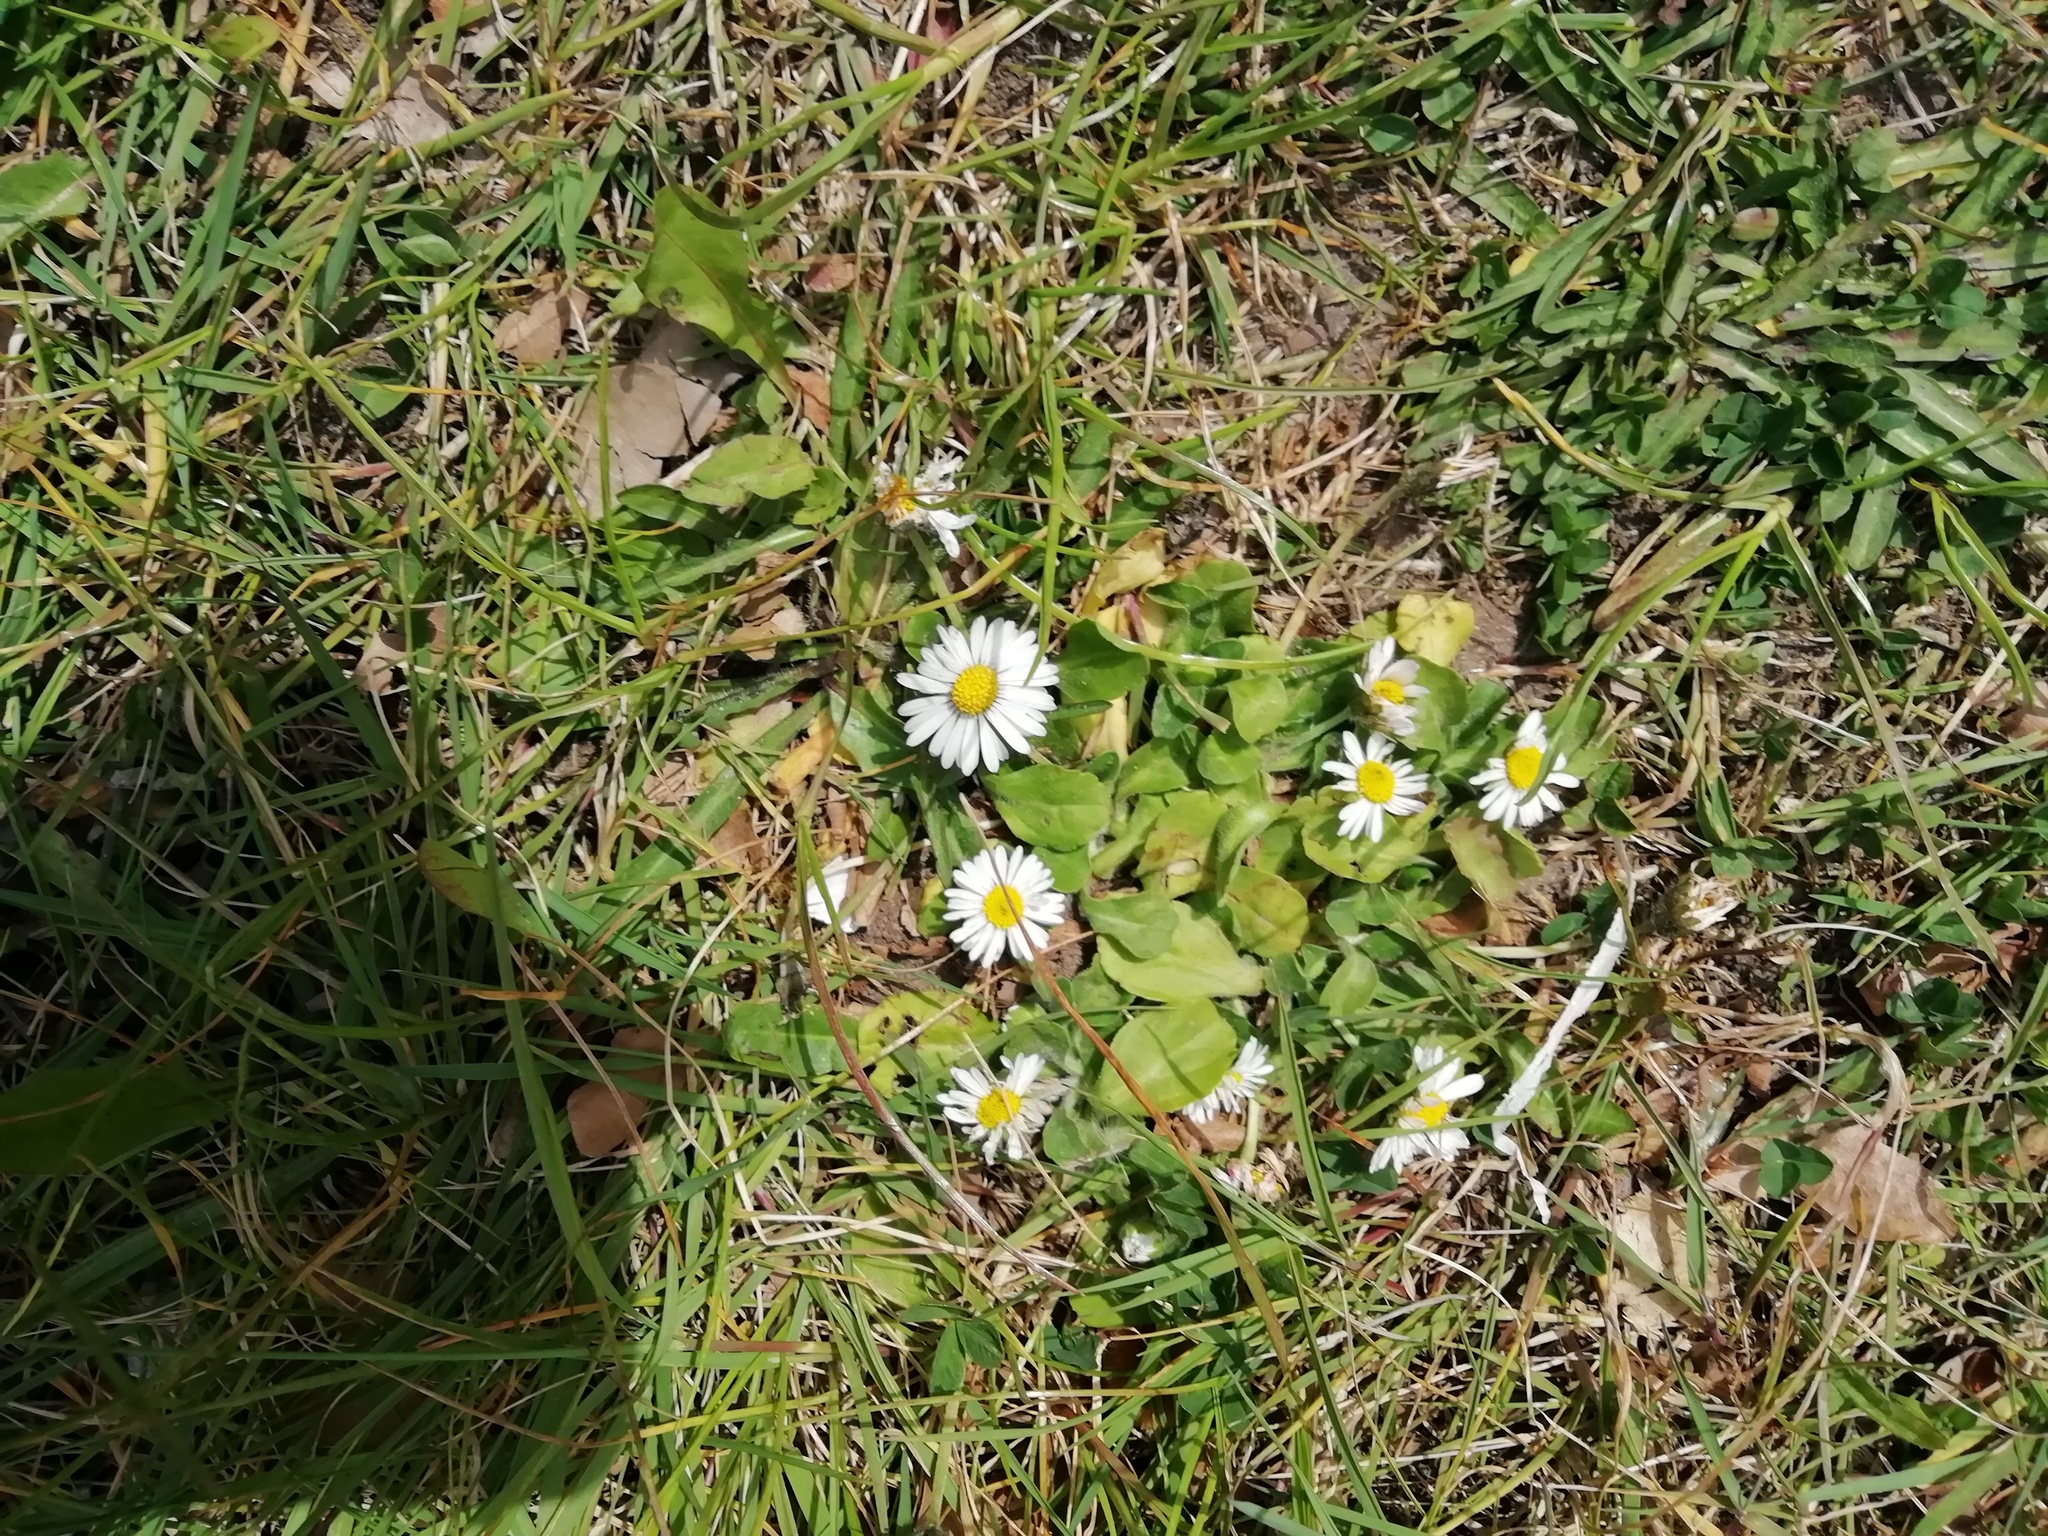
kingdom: Plantae
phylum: Tracheophyta
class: Magnoliopsida
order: Asterales
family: Asteraceae
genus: Bellis
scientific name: Bellis perennis
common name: Lawndaisy
